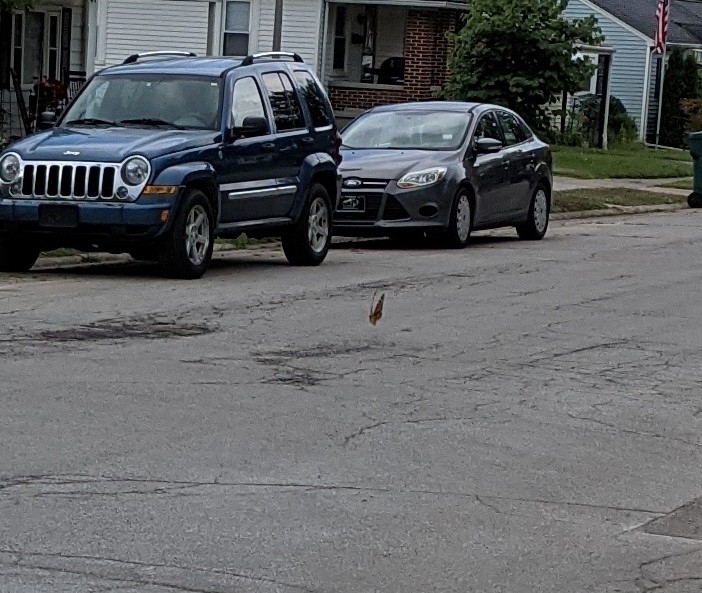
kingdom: Animalia
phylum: Arthropoda
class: Insecta
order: Lepidoptera
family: Nymphalidae
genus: Danaus
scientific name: Danaus plexippus
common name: Monarch
